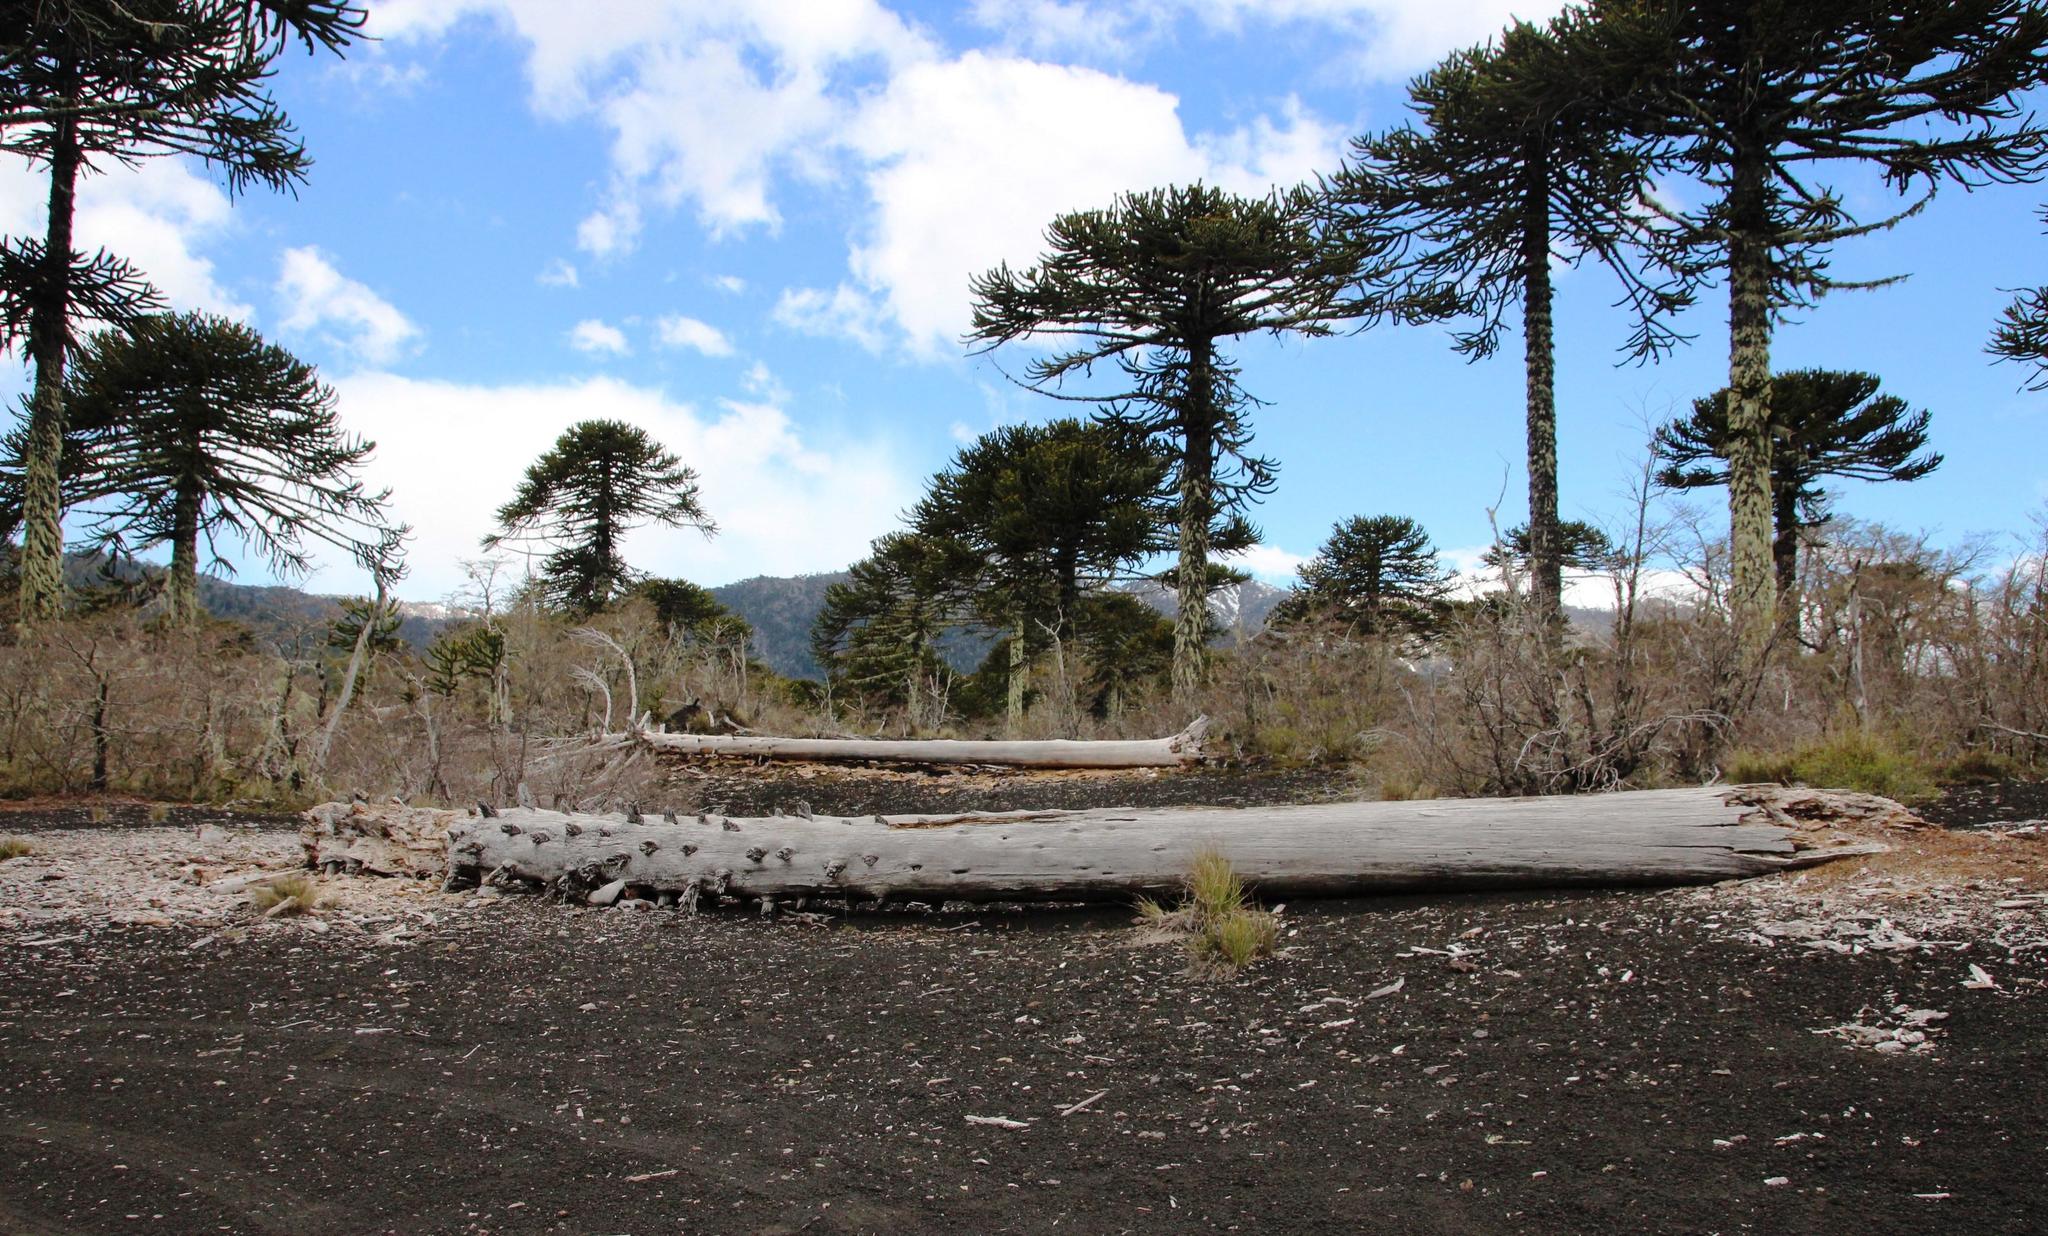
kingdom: Plantae
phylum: Tracheophyta
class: Pinopsida
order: Pinales
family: Araucariaceae
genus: Araucaria
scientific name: Araucaria araucana
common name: Monkey-puzzle
